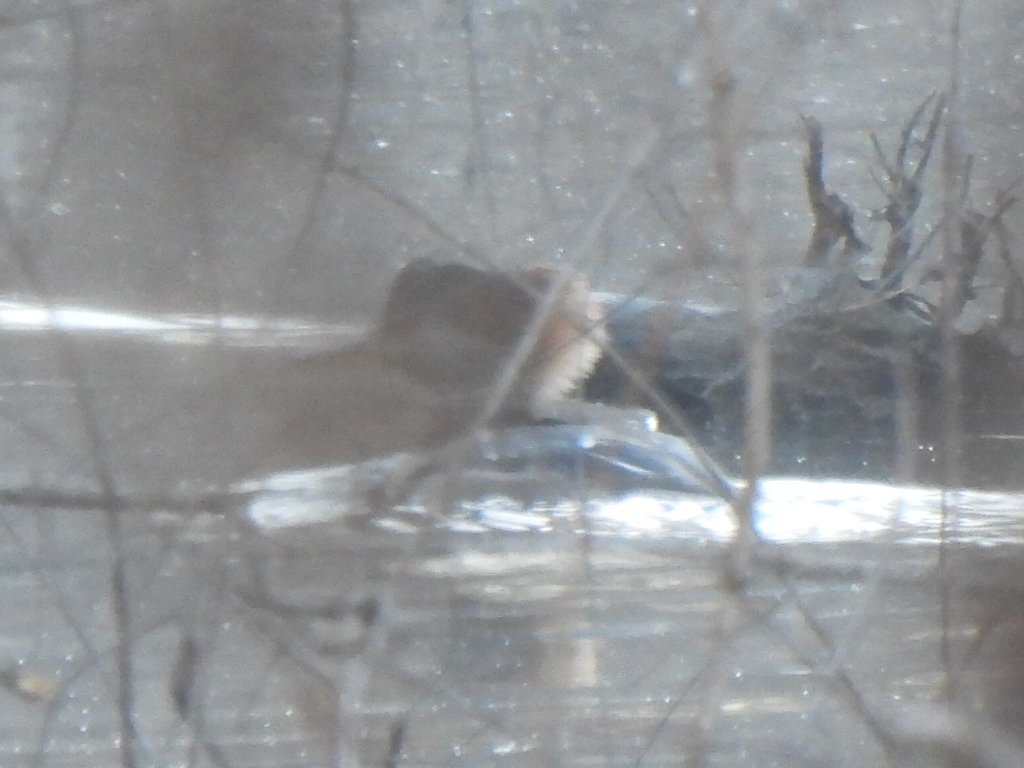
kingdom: Animalia
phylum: Chordata
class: Aves
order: Anseriformes
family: Anatidae
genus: Lophodytes
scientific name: Lophodytes cucullatus
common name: Hooded merganser
